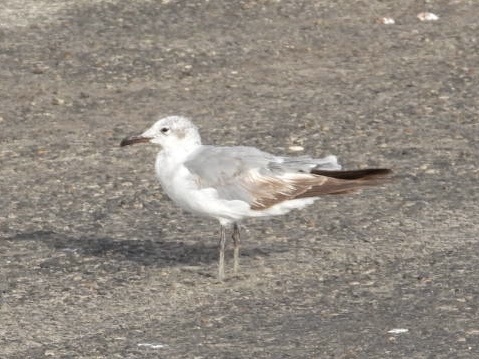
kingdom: Animalia
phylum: Chordata
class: Aves
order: Charadriiformes
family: Laridae
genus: Leucophaeus
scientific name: Leucophaeus atricilla
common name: Laughing gull
